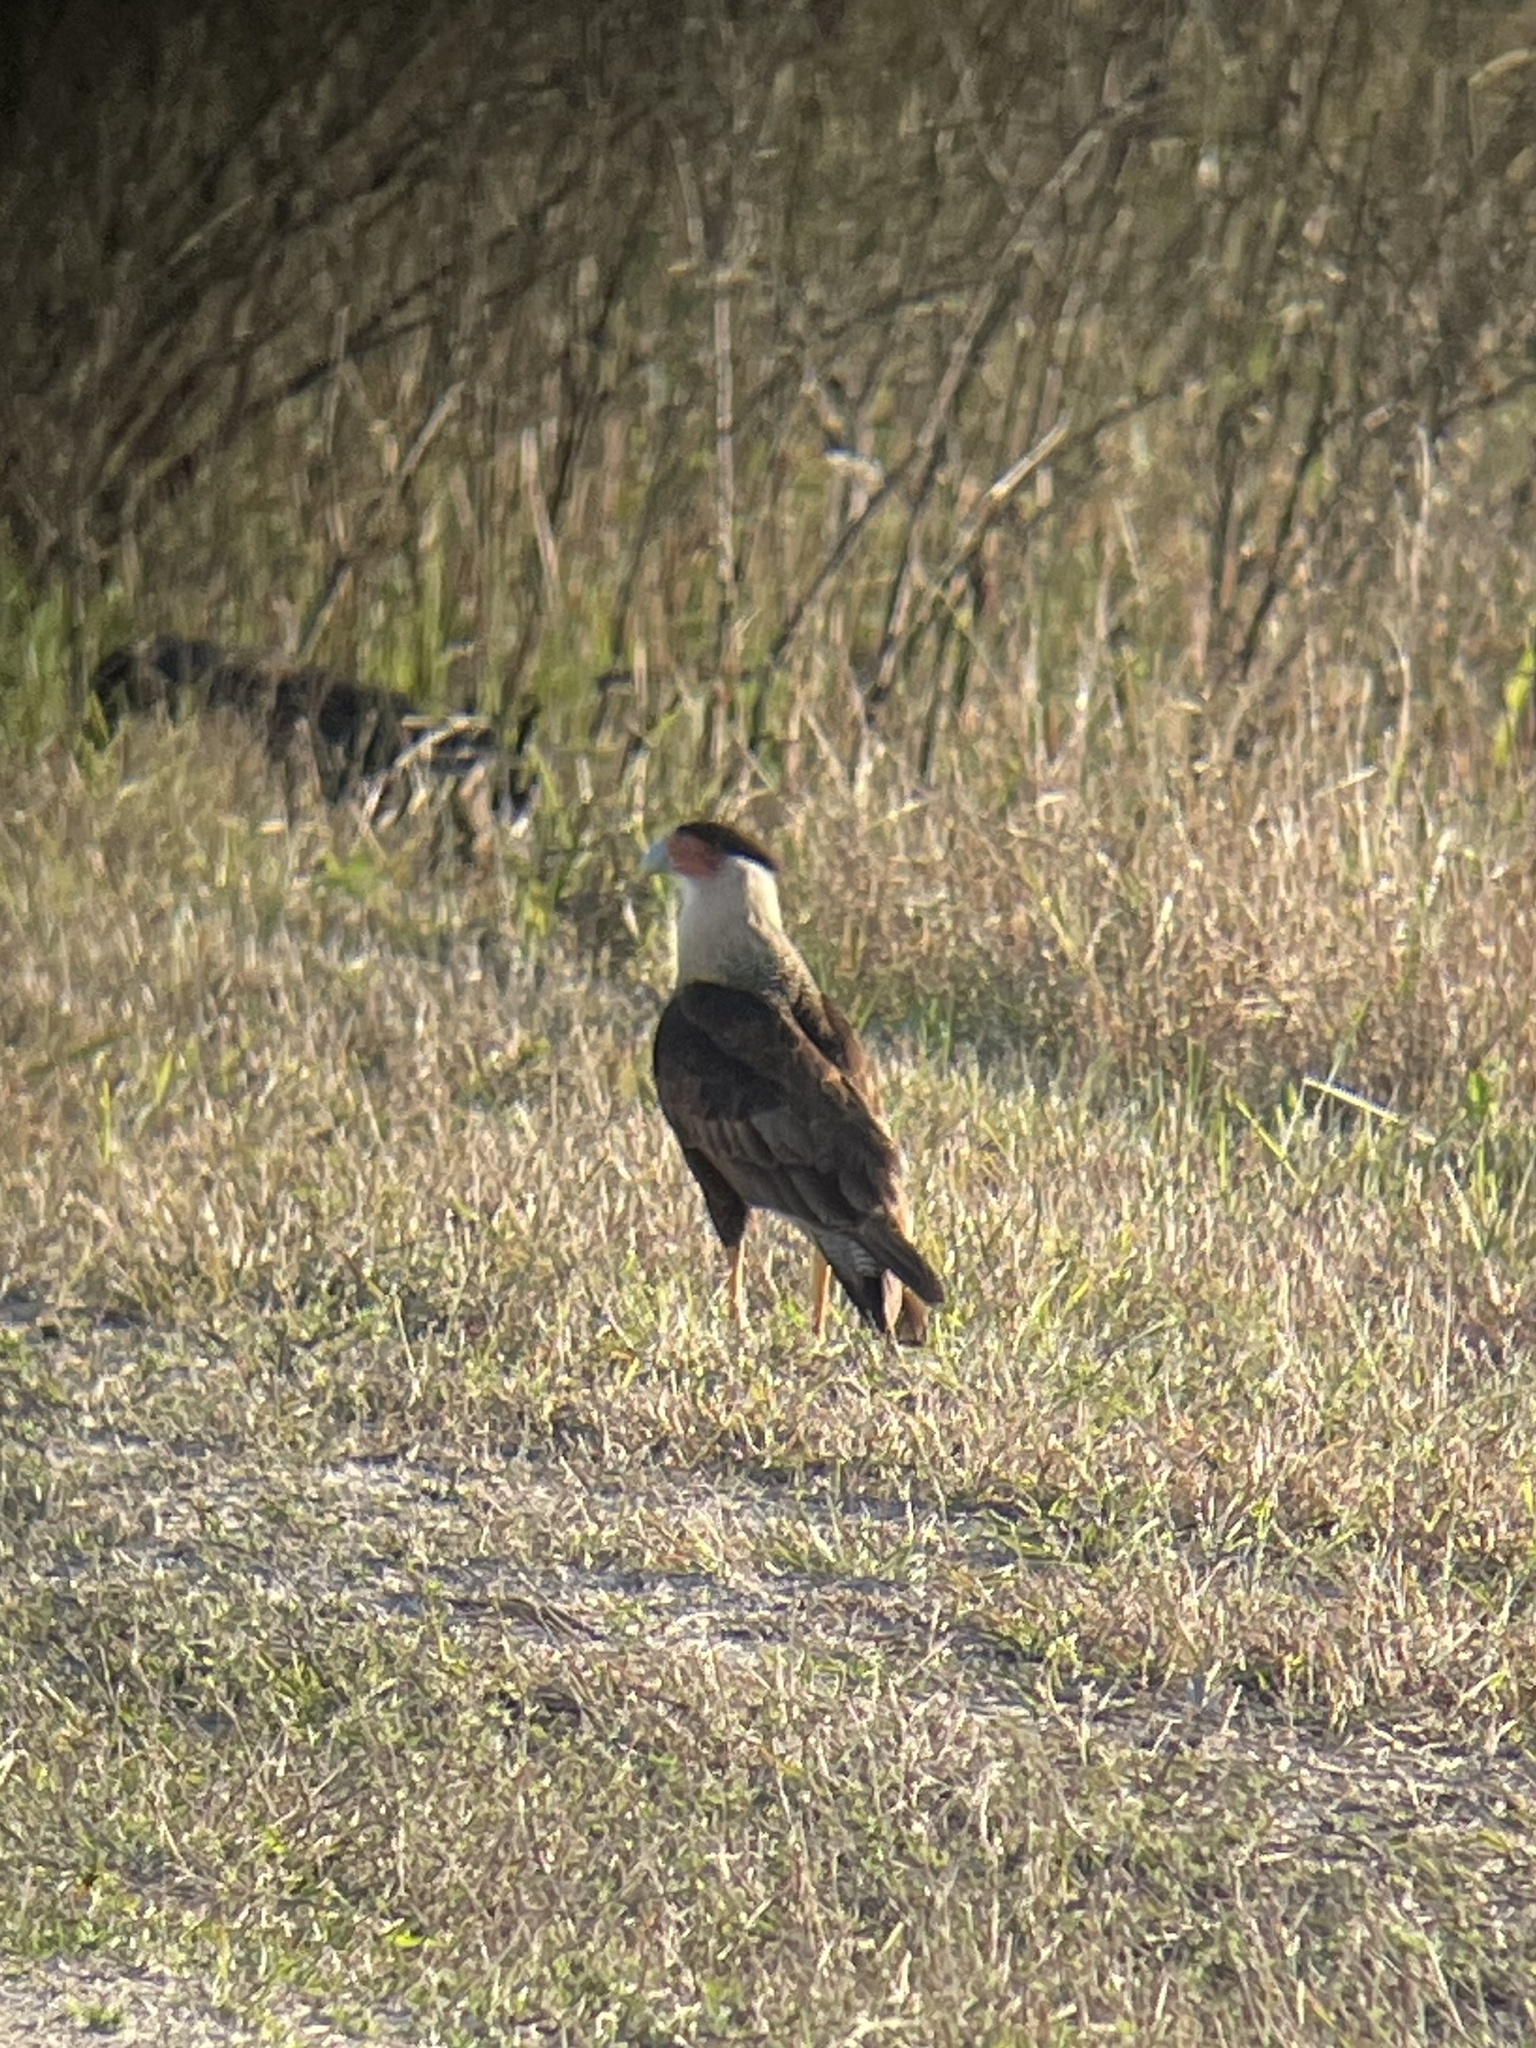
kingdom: Animalia
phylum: Chordata
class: Aves
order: Falconiformes
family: Falconidae
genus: Caracara
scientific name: Caracara plancus
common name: Southern caracara
